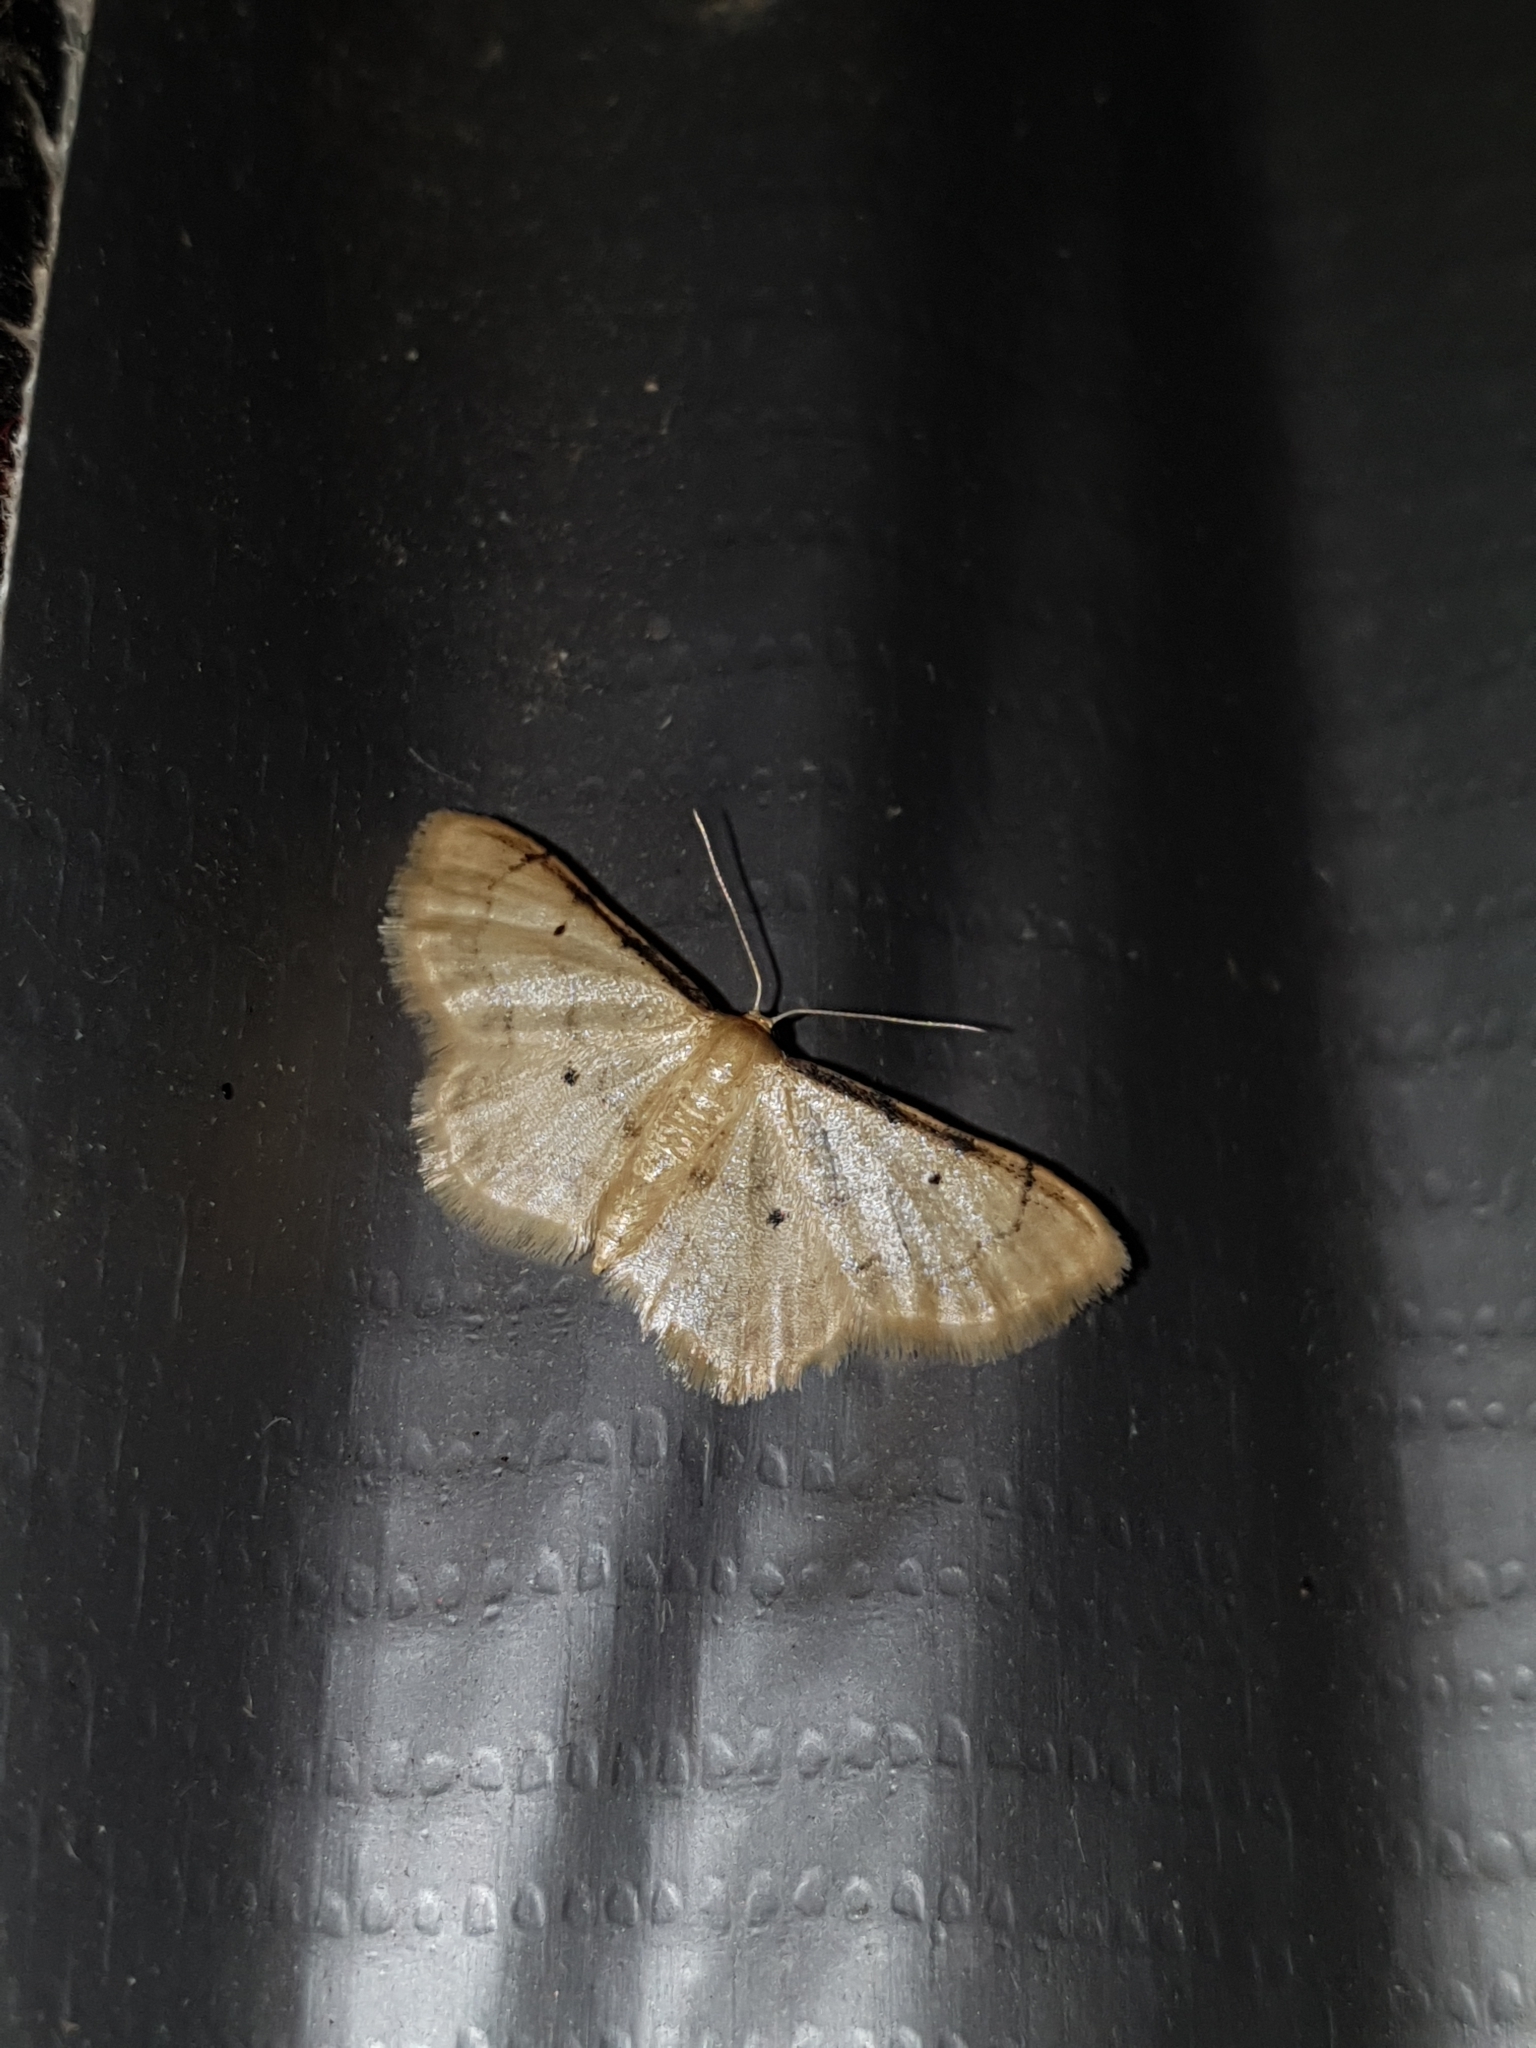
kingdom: Animalia
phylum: Arthropoda
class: Insecta
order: Lepidoptera
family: Geometridae
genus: Idaea
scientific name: Idaea politaria
